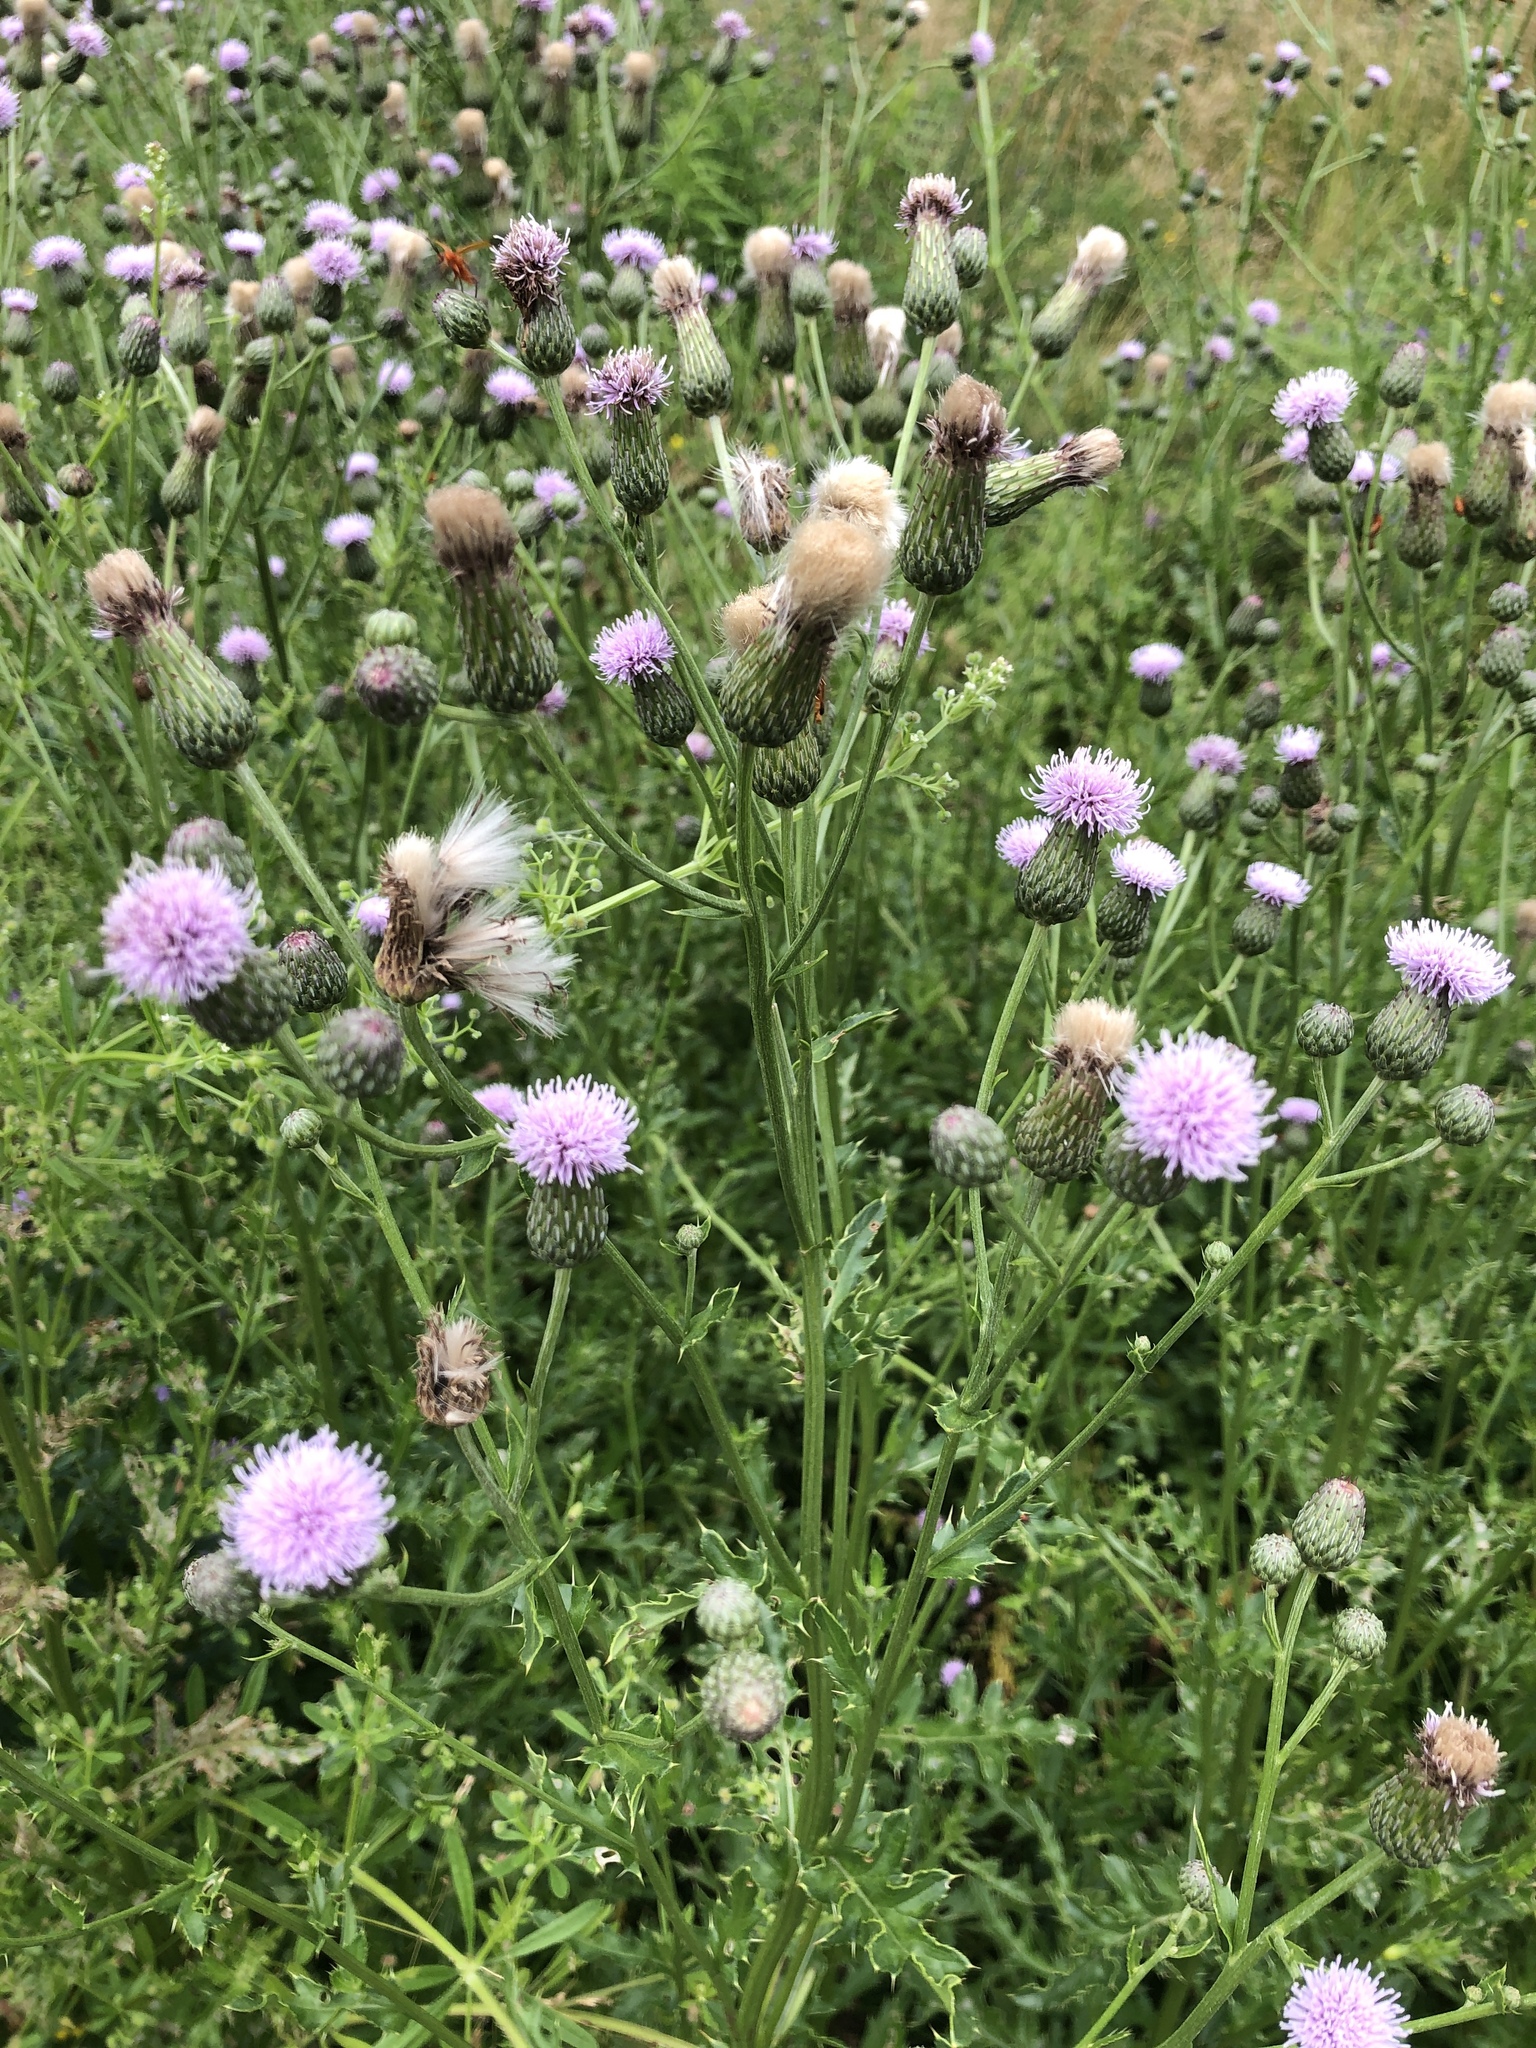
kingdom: Plantae
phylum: Tracheophyta
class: Magnoliopsida
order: Asterales
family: Asteraceae
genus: Cirsium
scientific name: Cirsium arvense
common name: Creeping thistle
